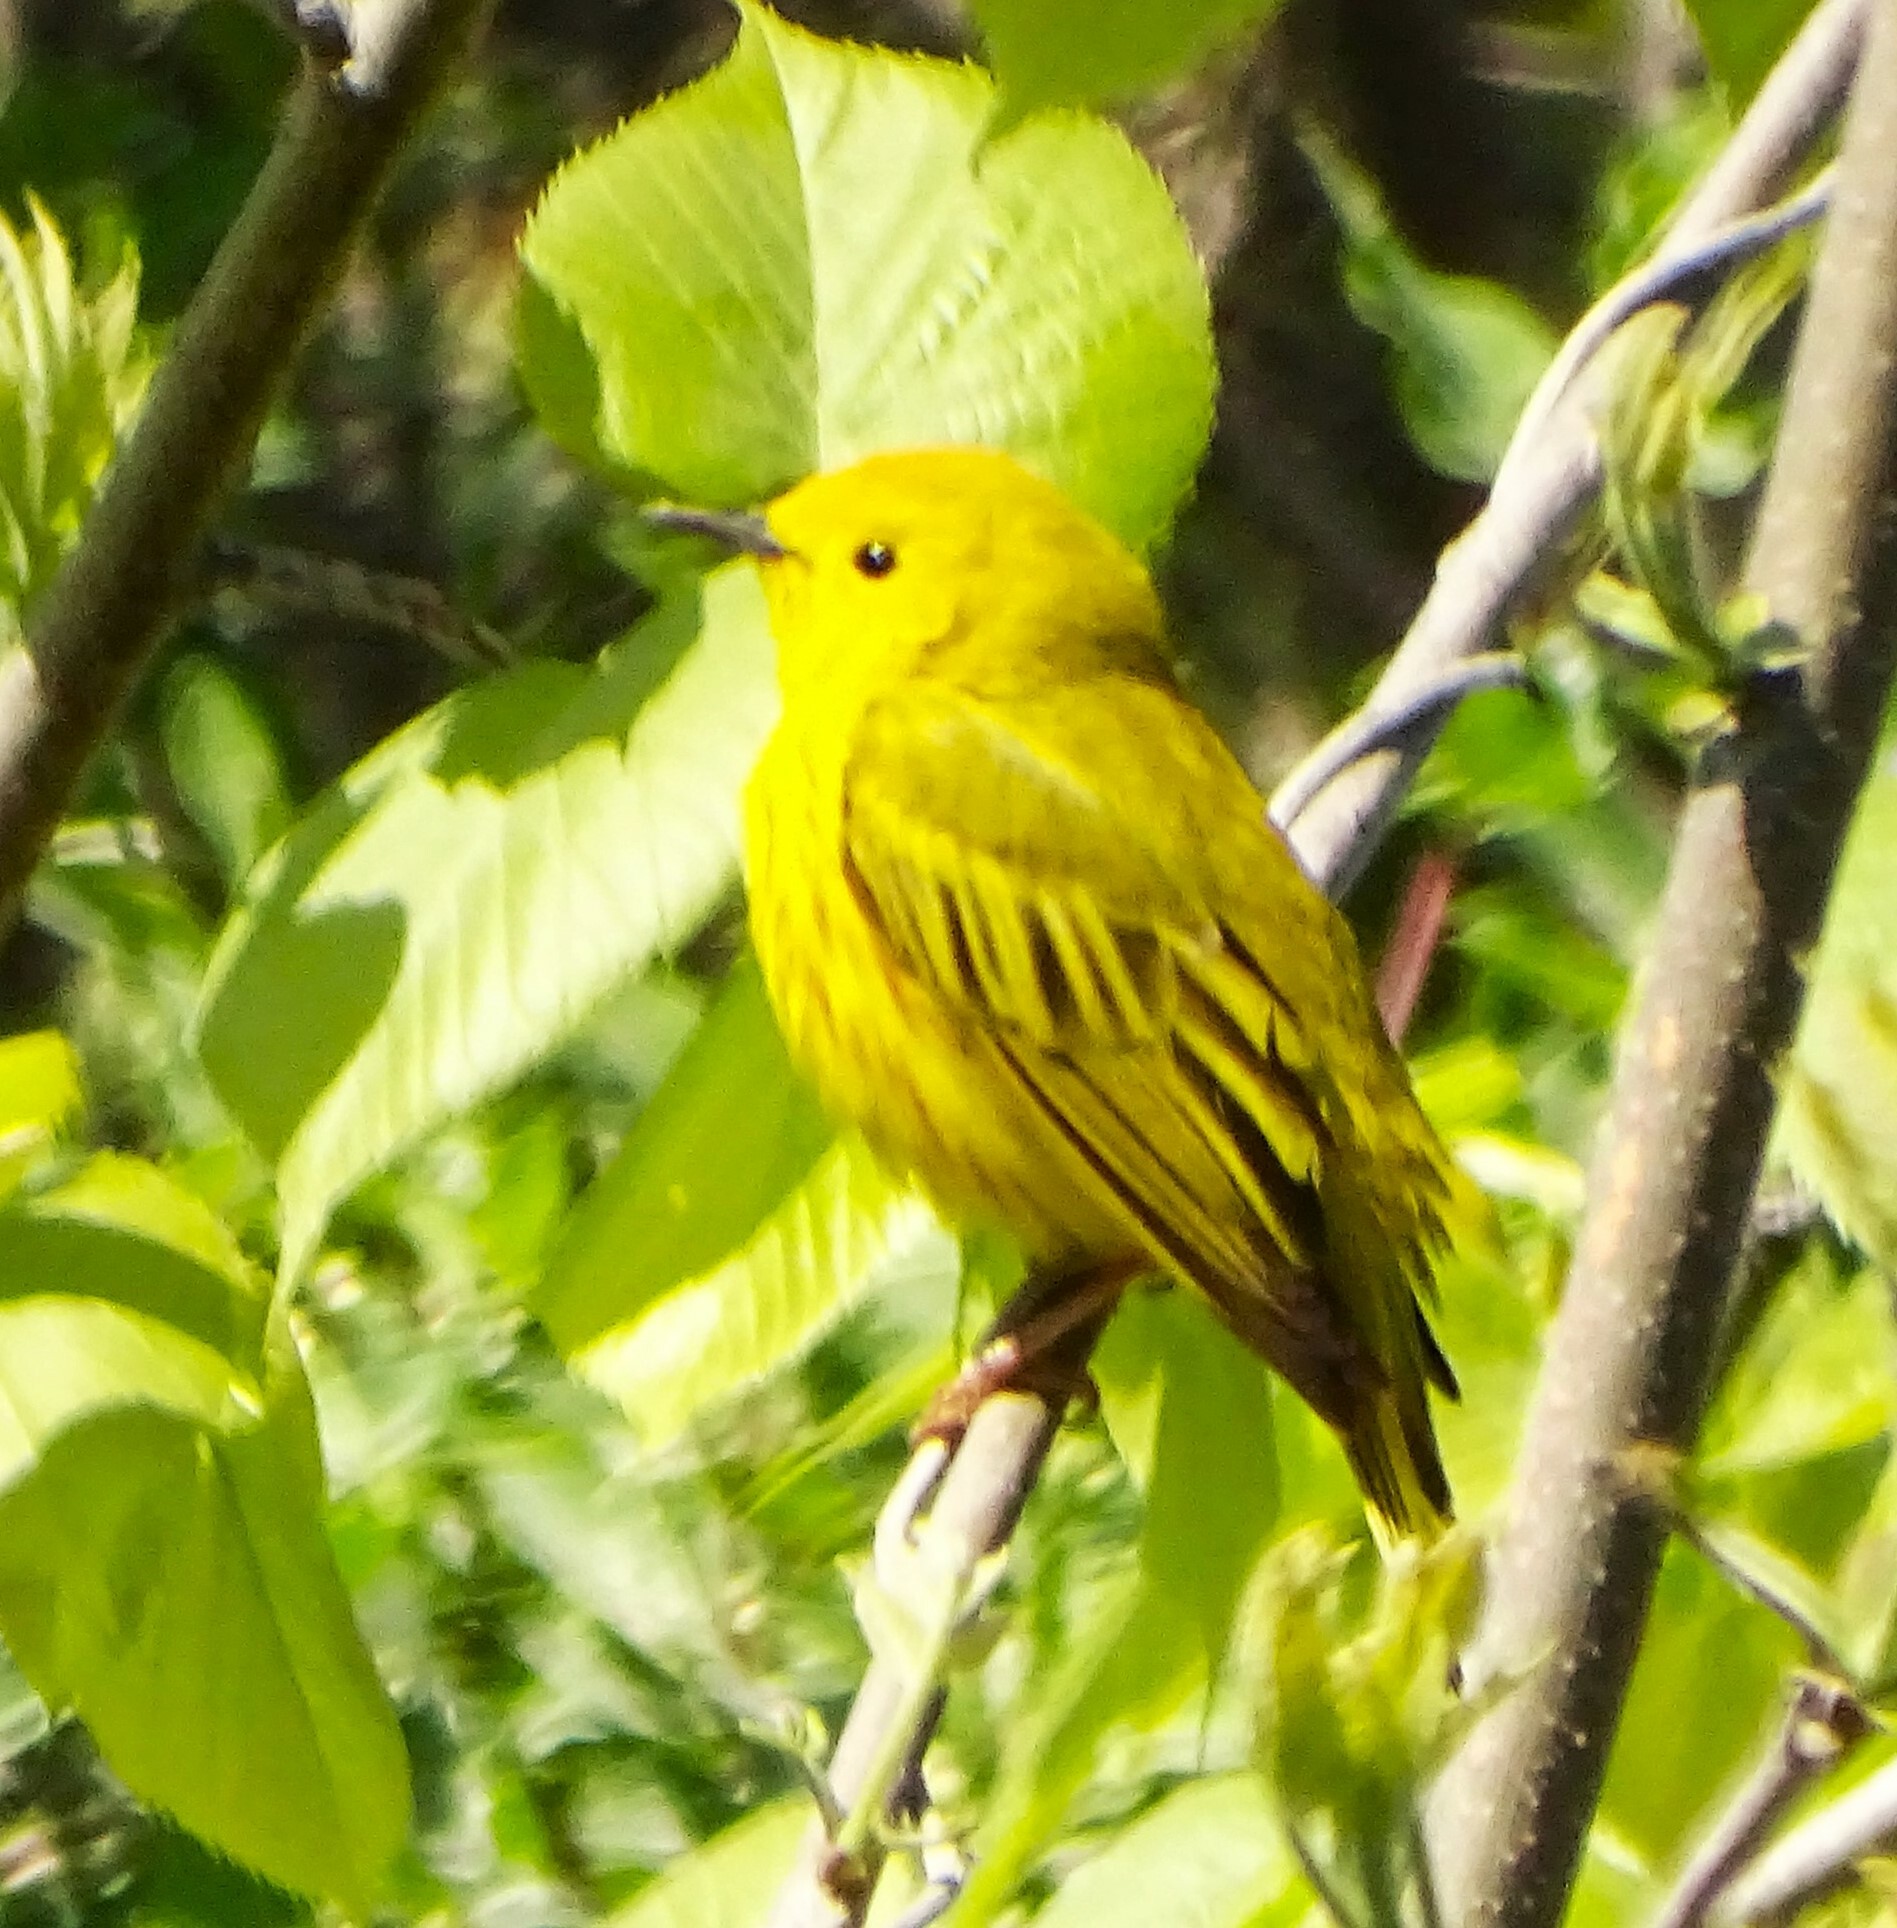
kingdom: Animalia
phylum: Chordata
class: Aves
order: Passeriformes
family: Parulidae
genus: Setophaga
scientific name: Setophaga petechia
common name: Yellow warbler
